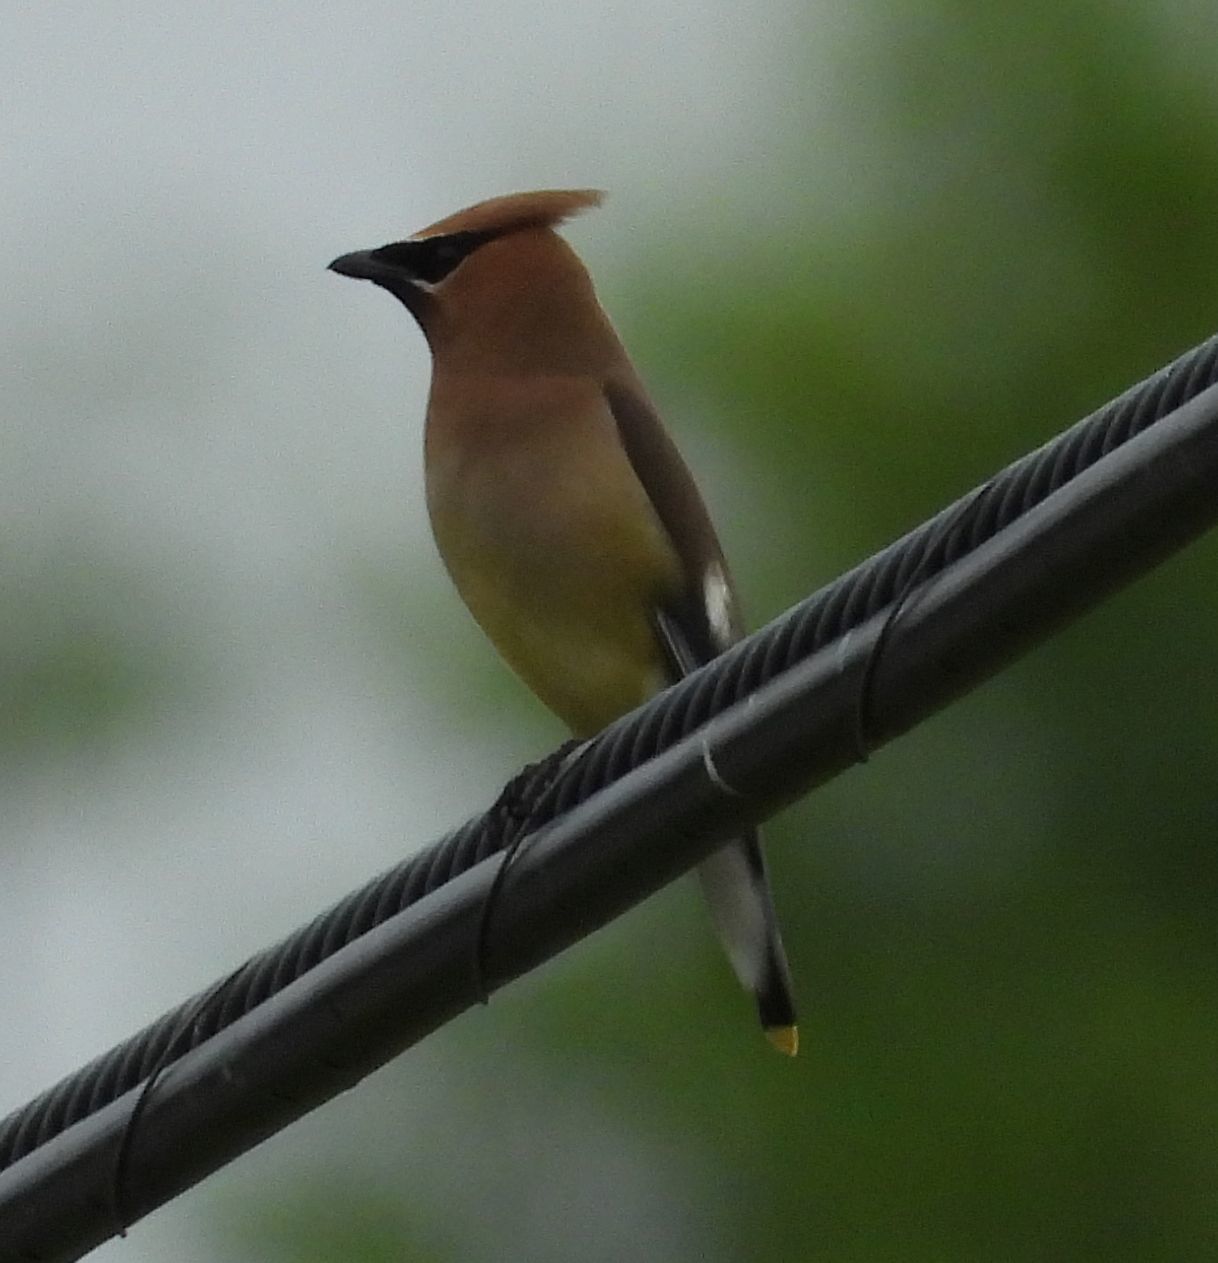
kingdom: Animalia
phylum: Chordata
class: Aves
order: Passeriformes
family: Bombycillidae
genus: Bombycilla
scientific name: Bombycilla cedrorum
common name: Cedar waxwing
